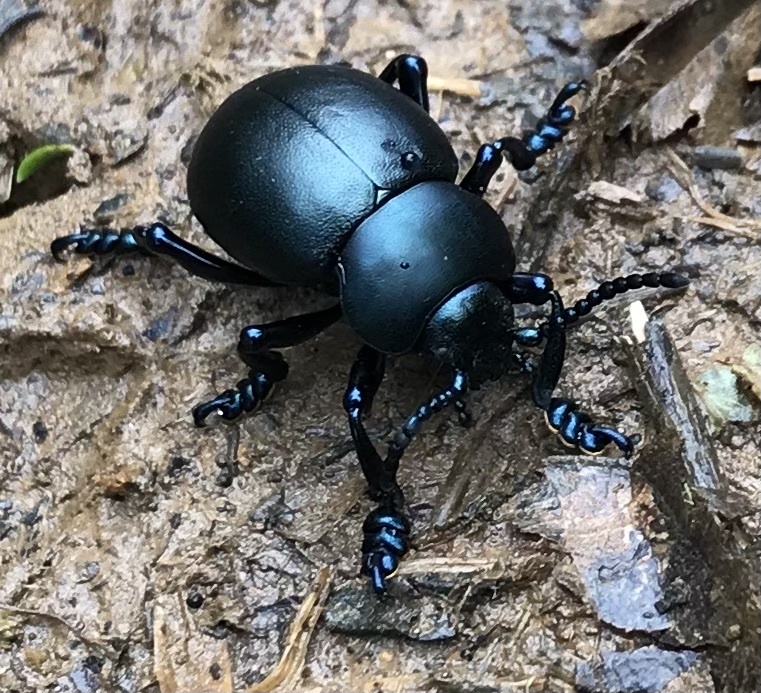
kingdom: Animalia
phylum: Arthropoda
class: Insecta
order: Coleoptera
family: Chrysomelidae
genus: Timarcha
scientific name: Timarcha tenebricosa
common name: Bloody-nosed beetle
